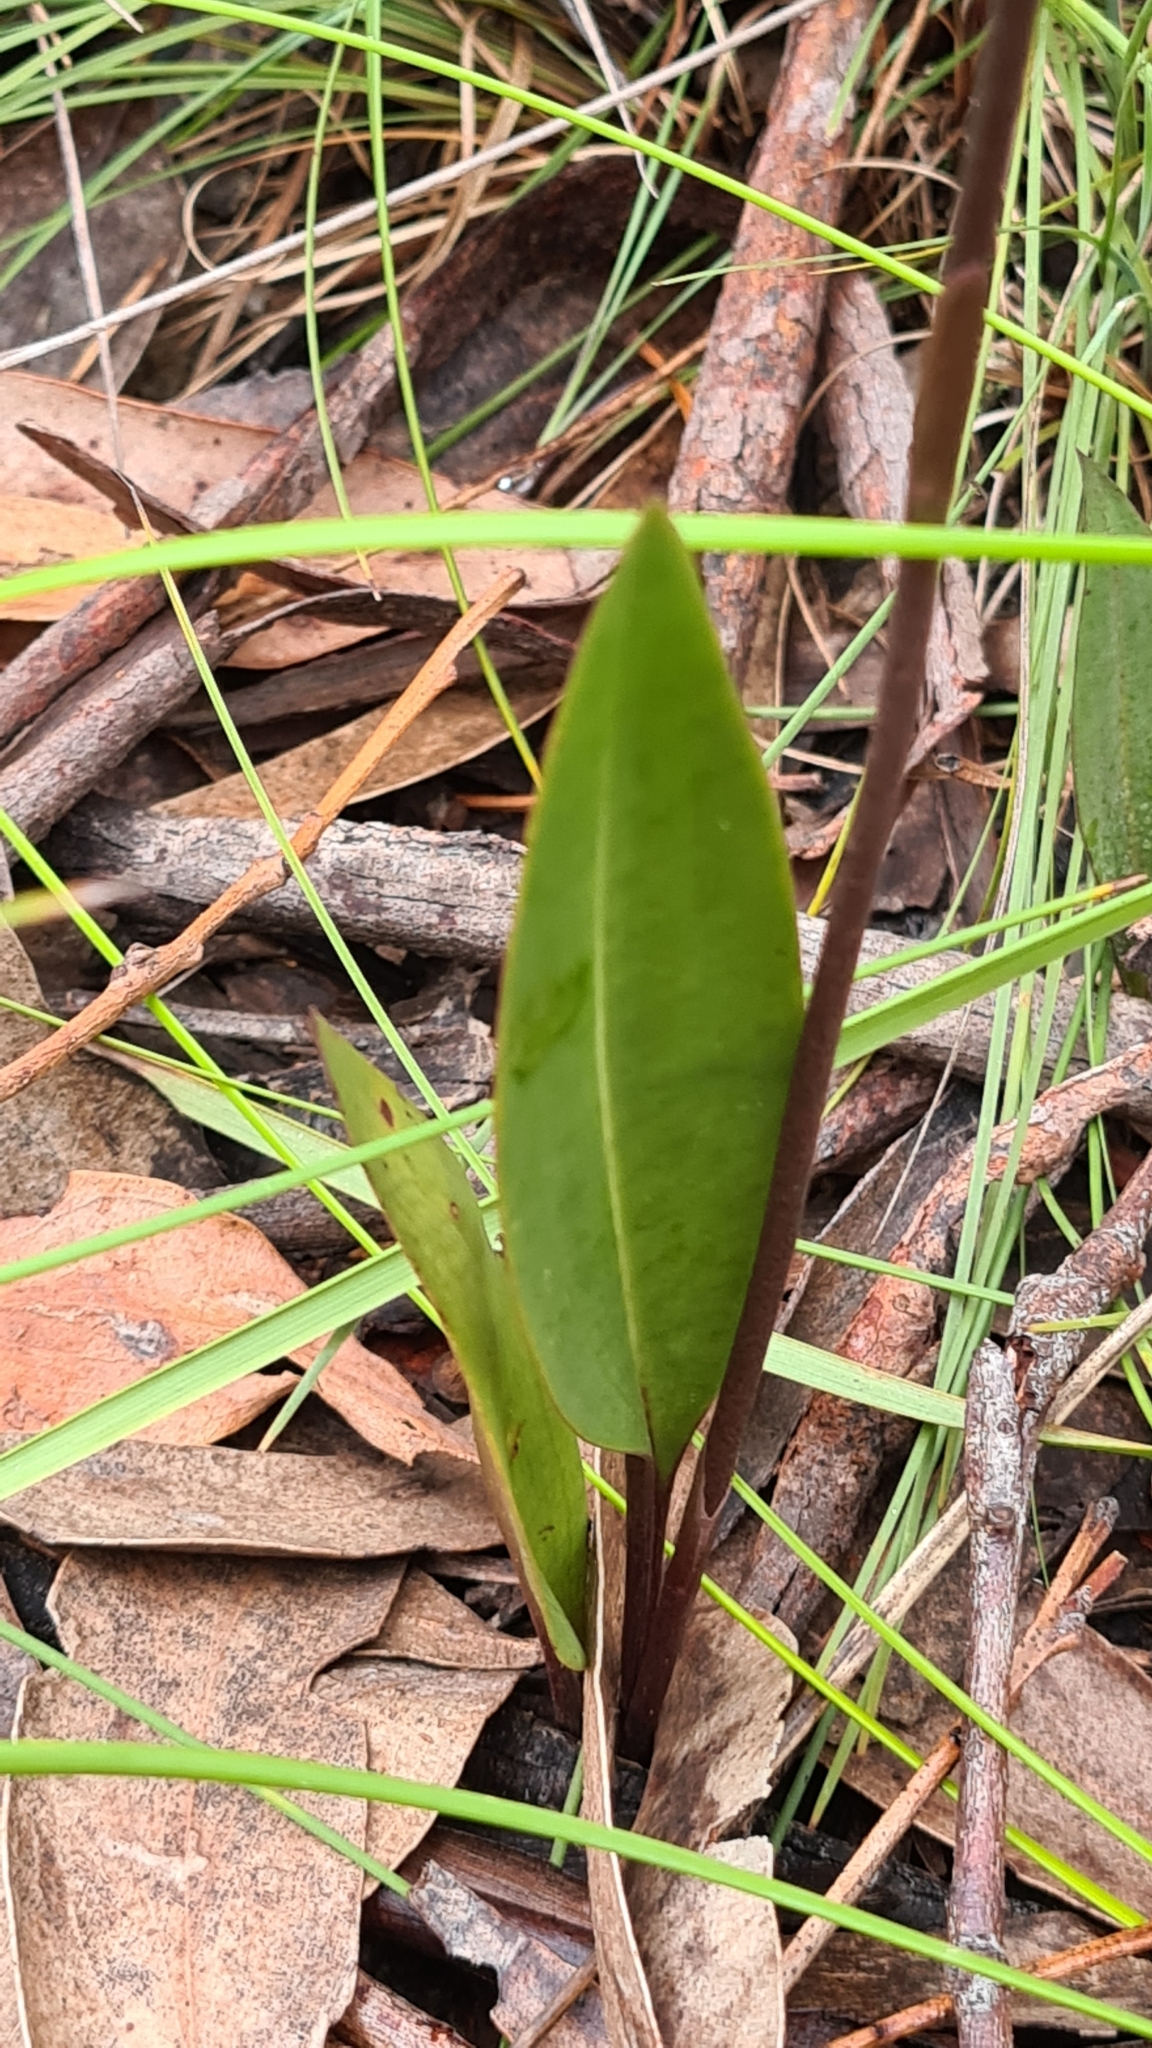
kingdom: Plantae
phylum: Tracheophyta
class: Liliopsida
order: Asparagales
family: Orchidaceae
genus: Cryptostylis
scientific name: Cryptostylis erecta
